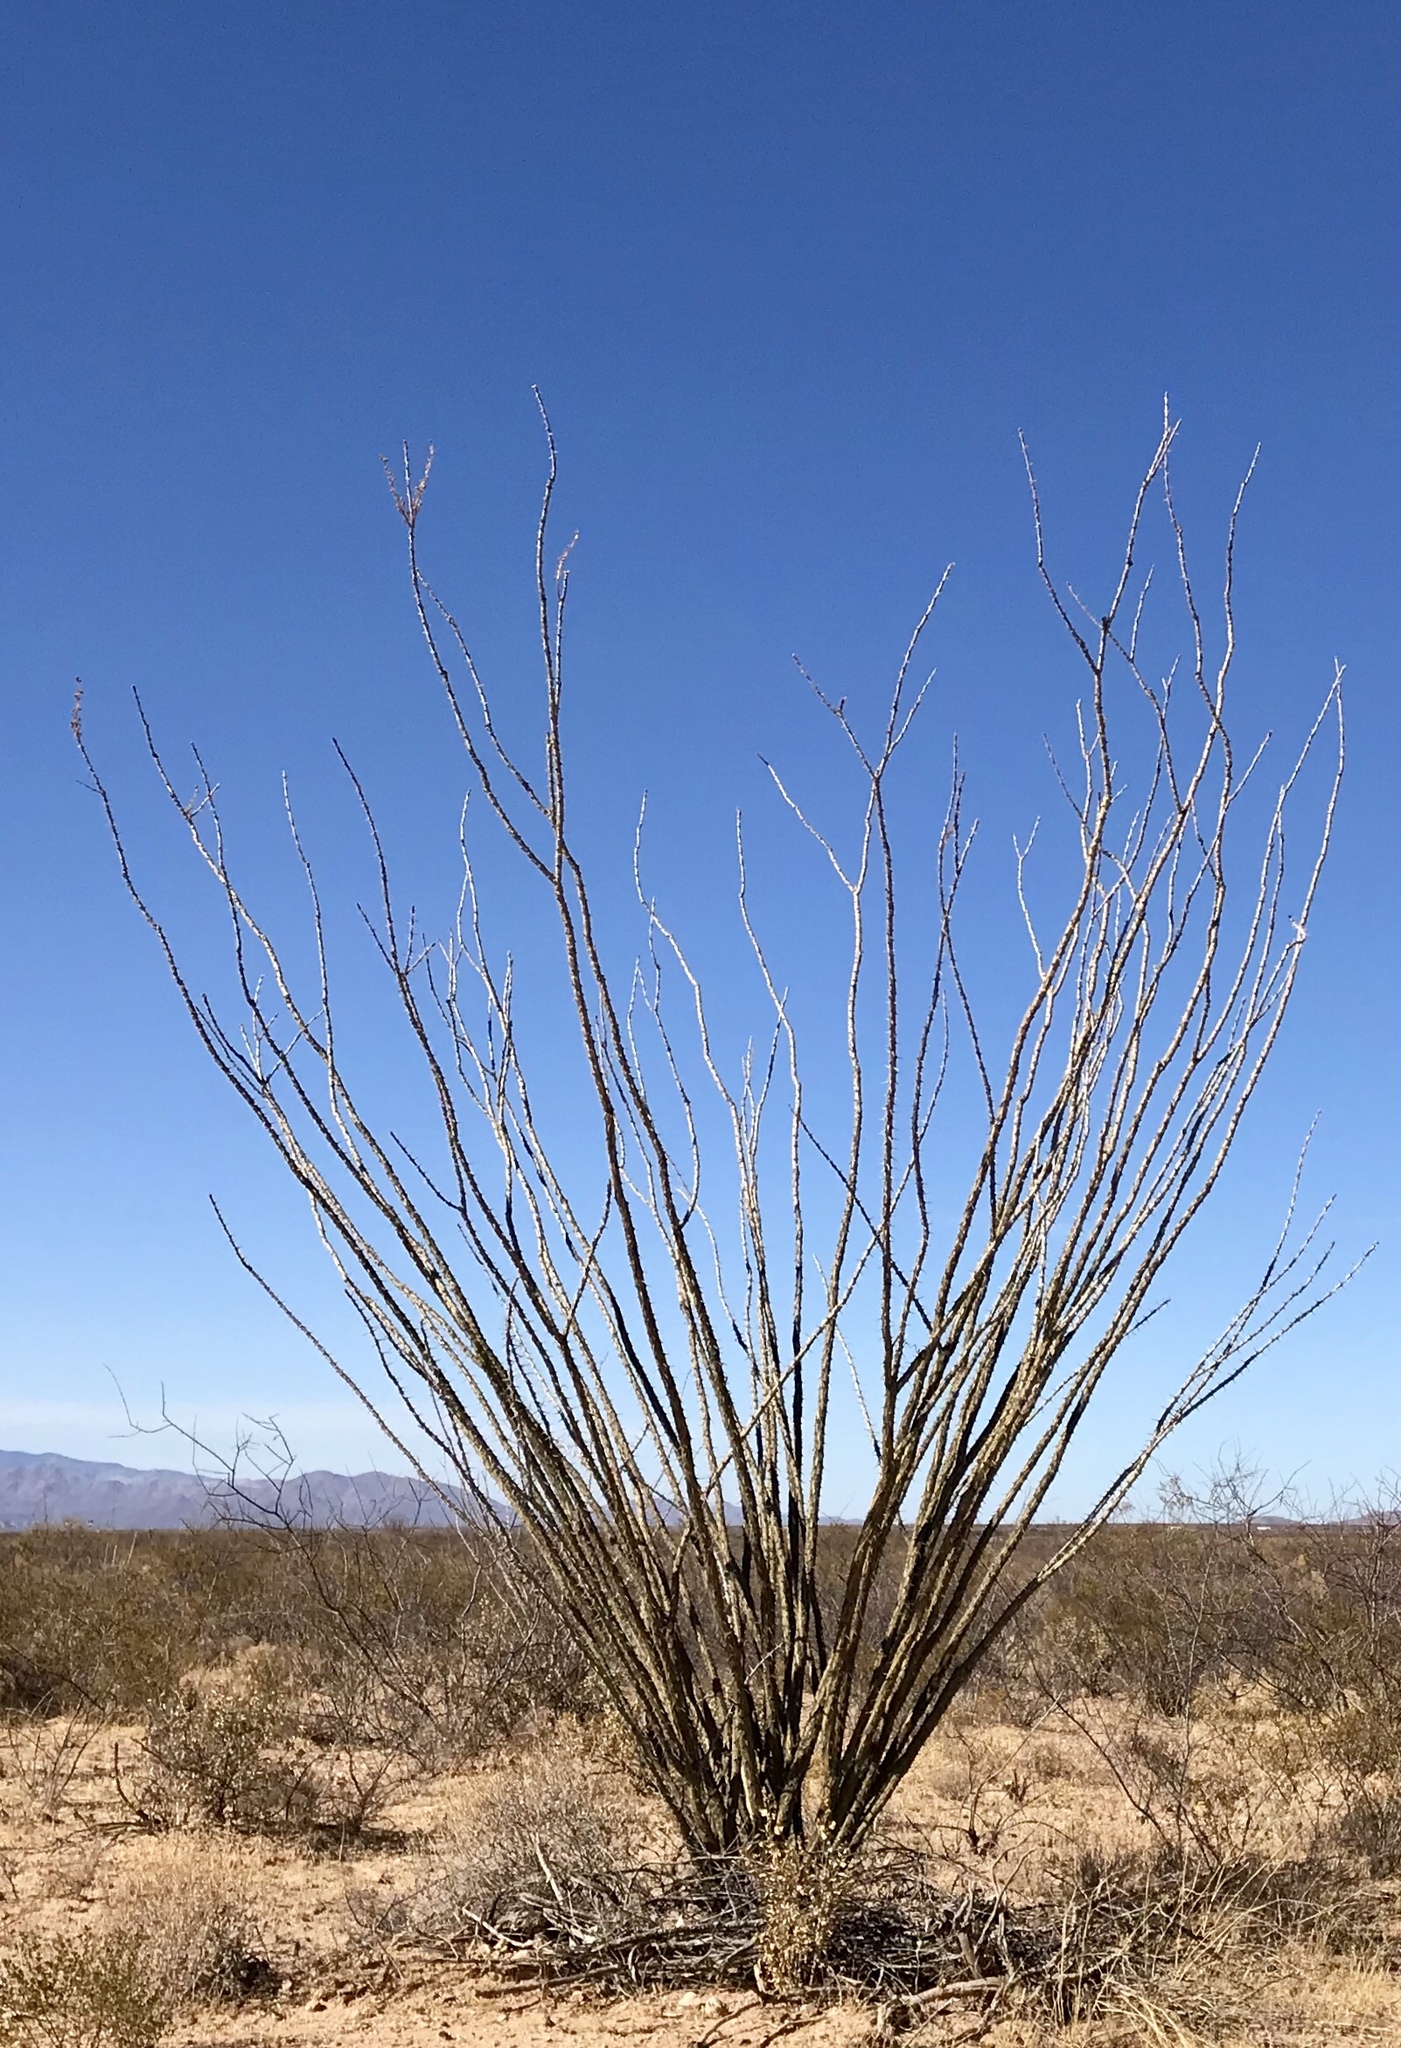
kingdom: Plantae
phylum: Tracheophyta
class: Magnoliopsida
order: Ericales
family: Fouquieriaceae
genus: Fouquieria
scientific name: Fouquieria splendens
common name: Vine-cactus
